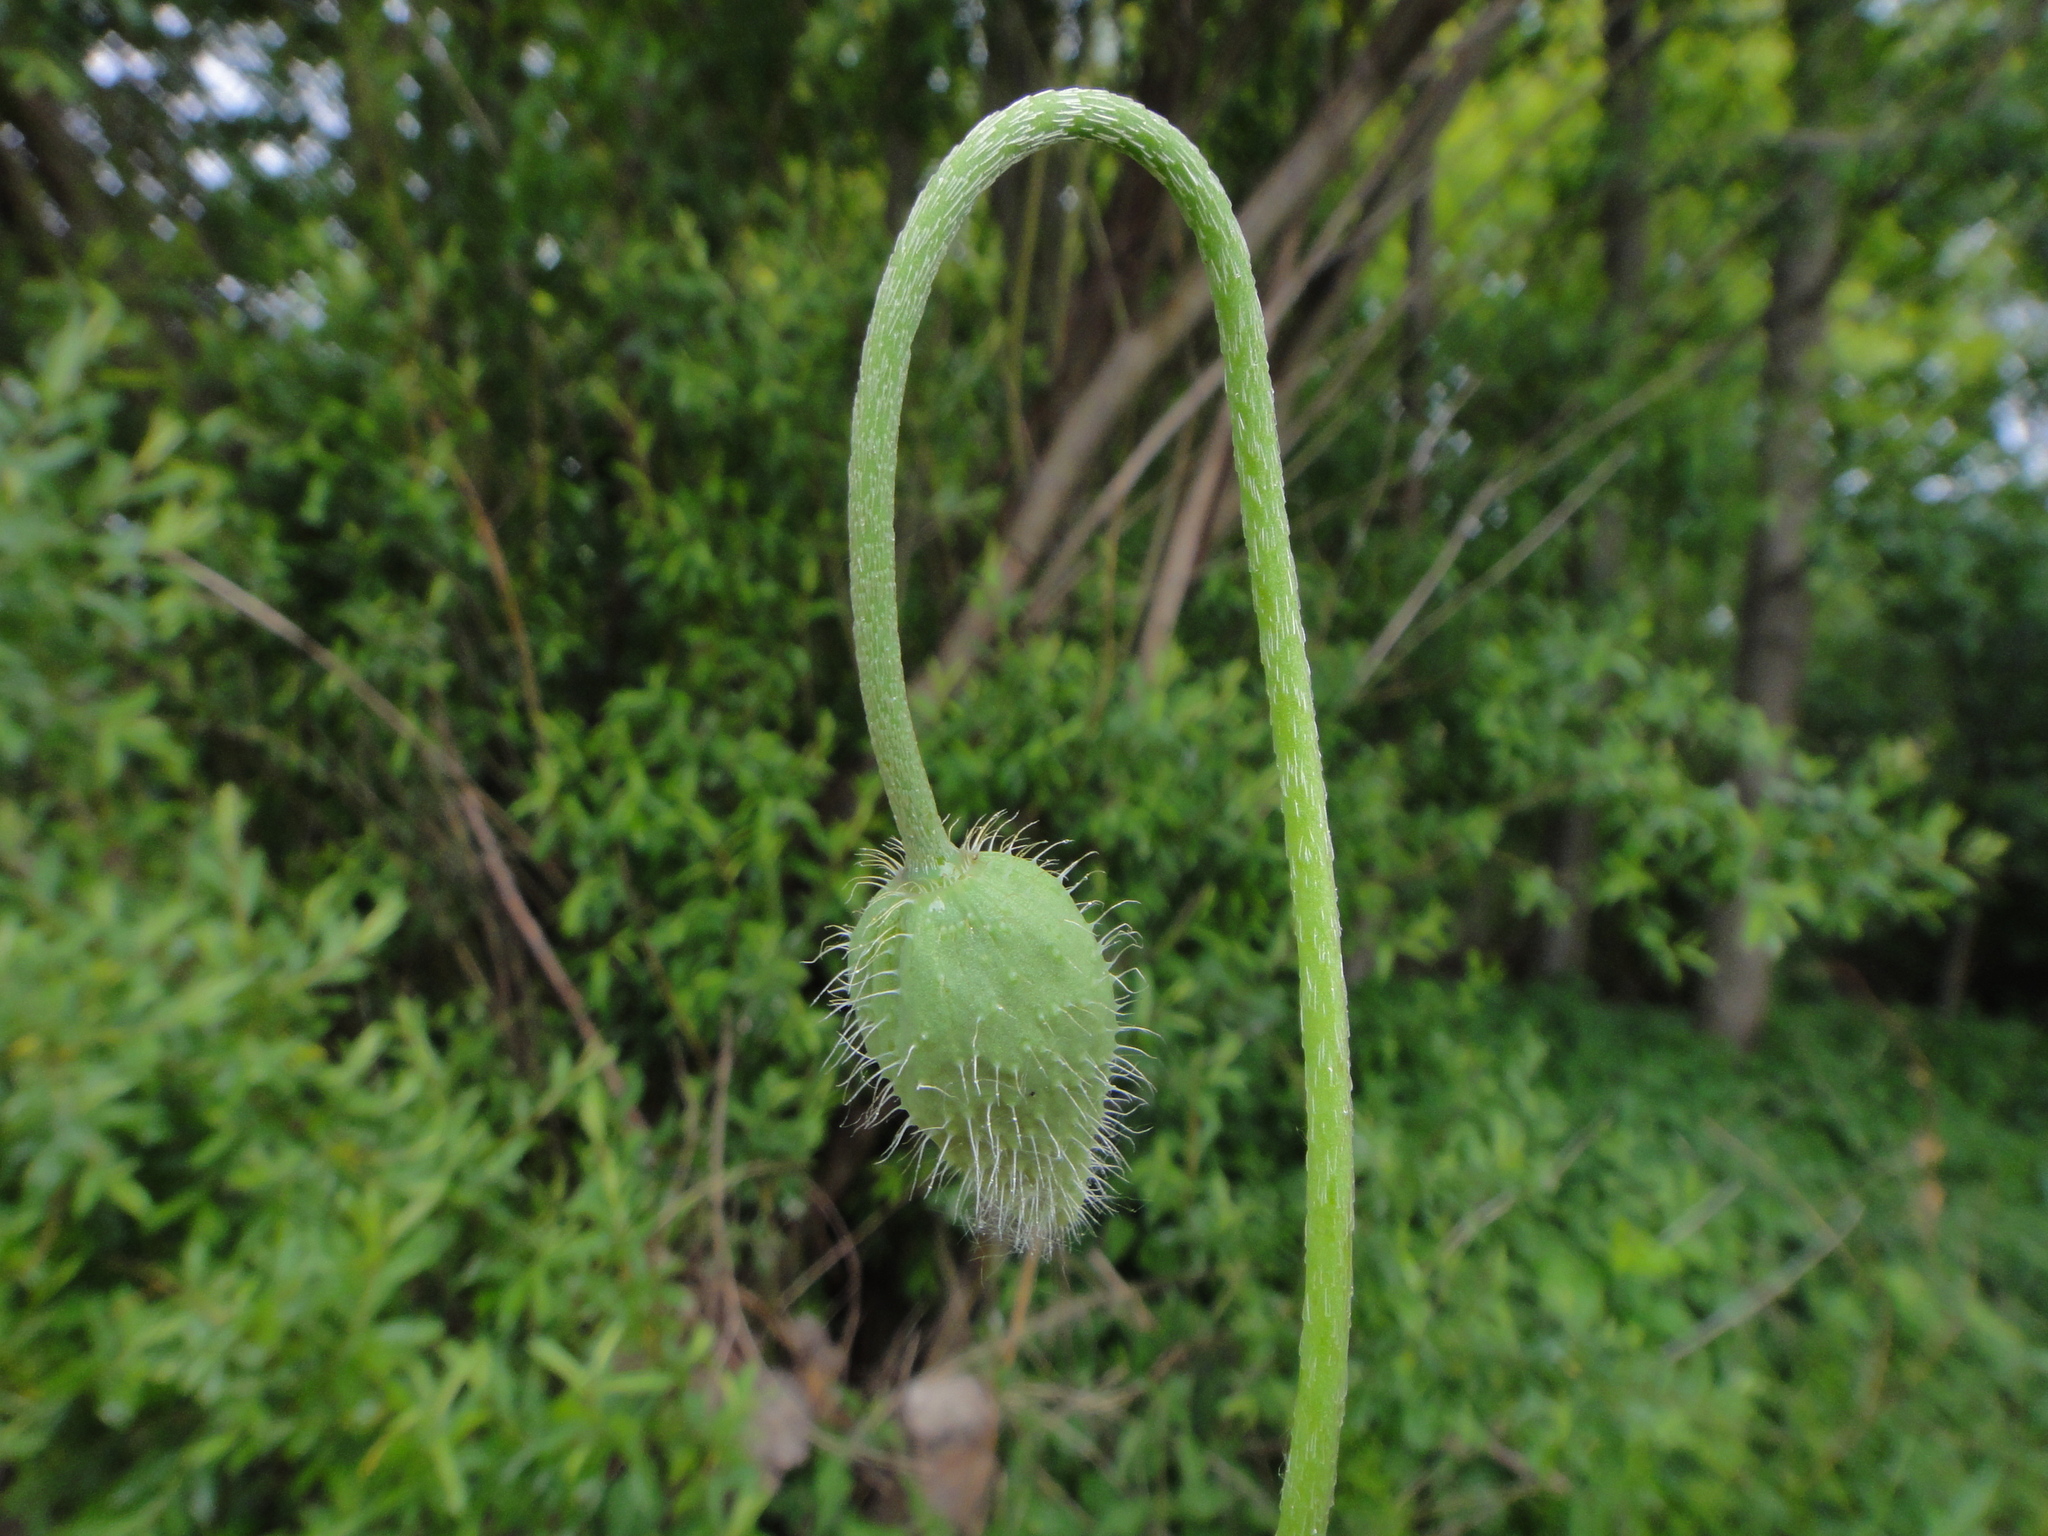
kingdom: Plantae
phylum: Tracheophyta
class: Magnoliopsida
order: Ranunculales
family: Papaveraceae
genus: Papaver
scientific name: Papaver dubium
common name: Long-headed poppy
